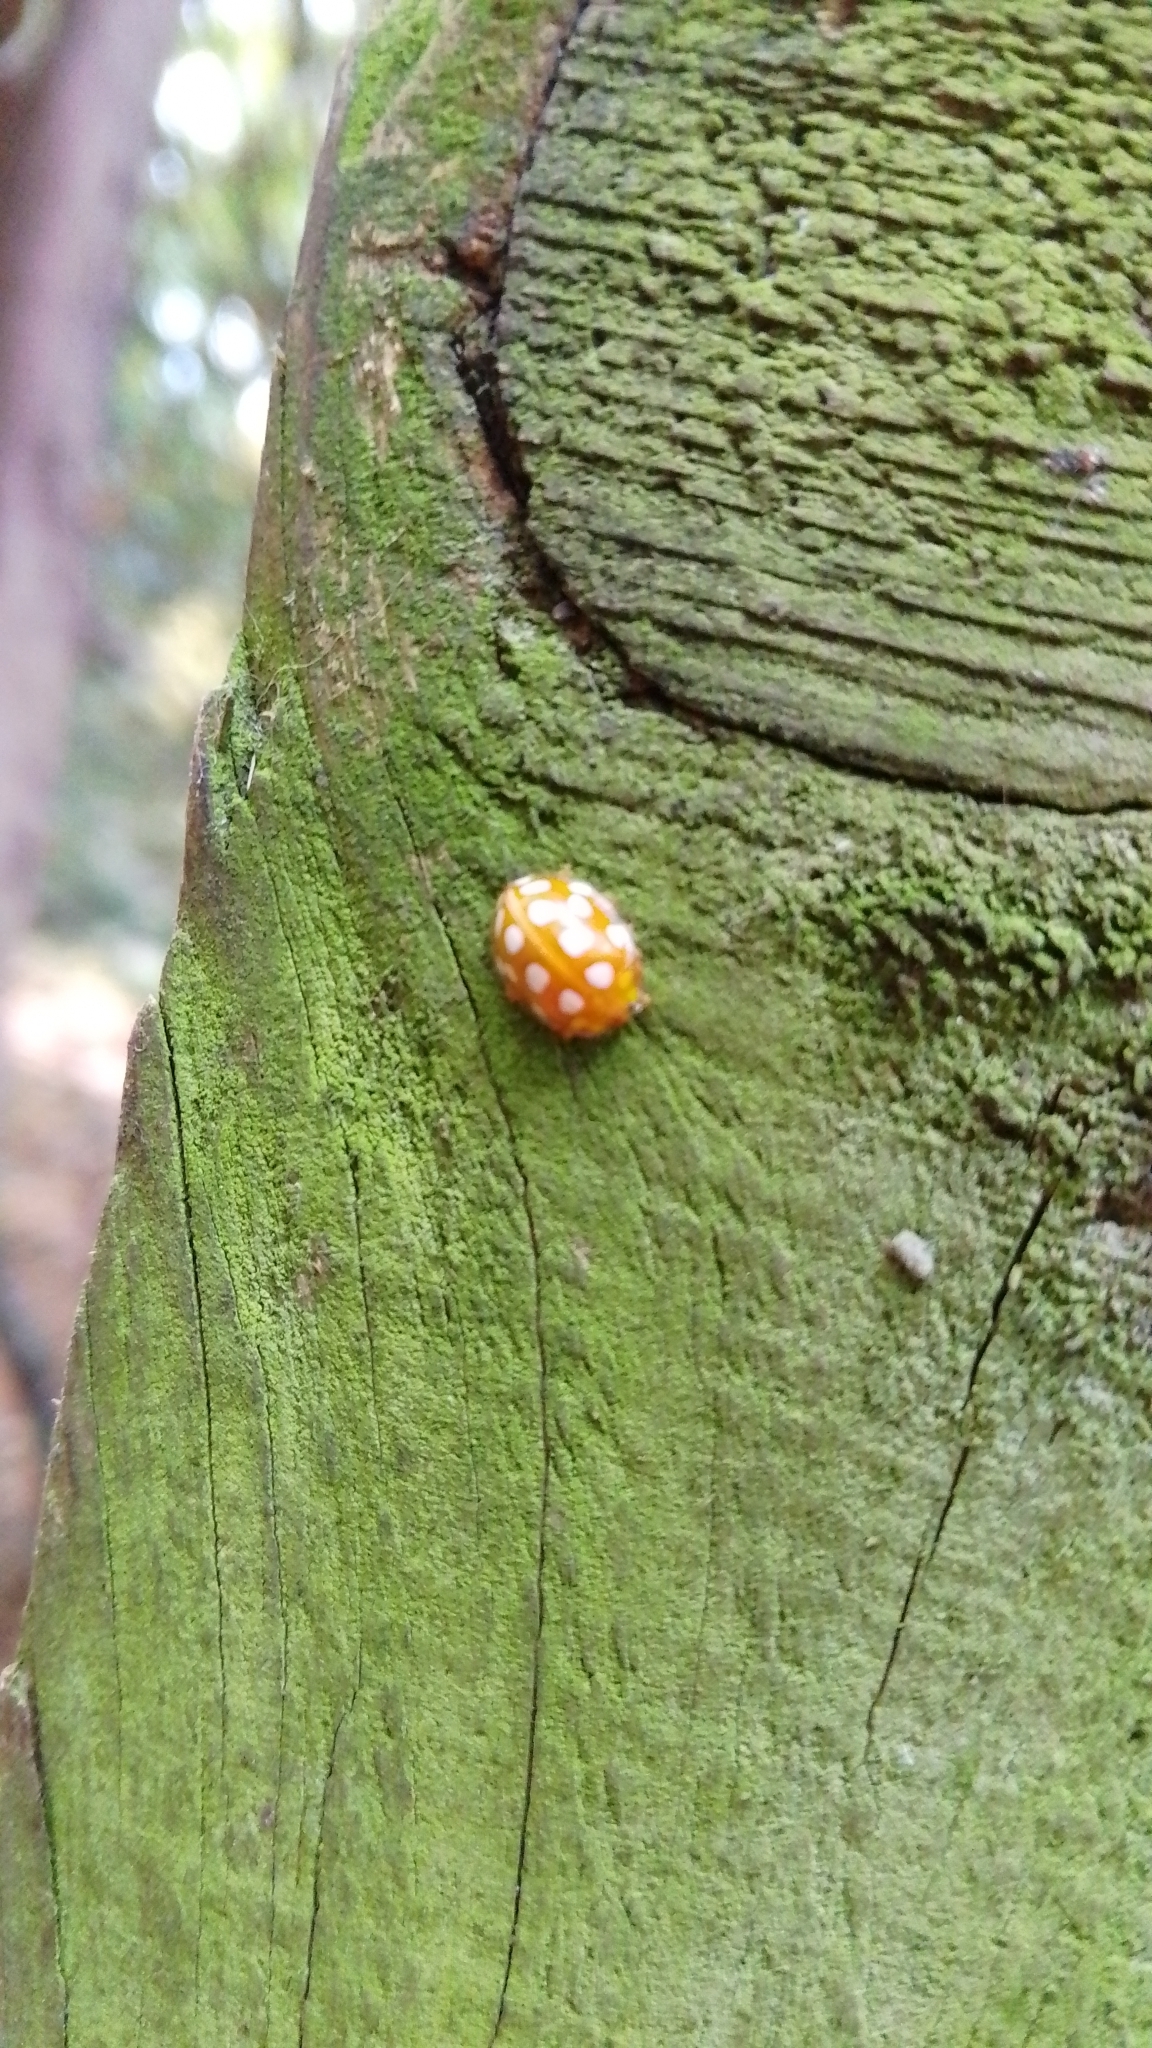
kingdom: Animalia
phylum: Arthropoda
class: Insecta
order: Coleoptera
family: Coccinellidae
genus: Halyzia
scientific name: Halyzia sedecimguttata
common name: Orange ladybird
